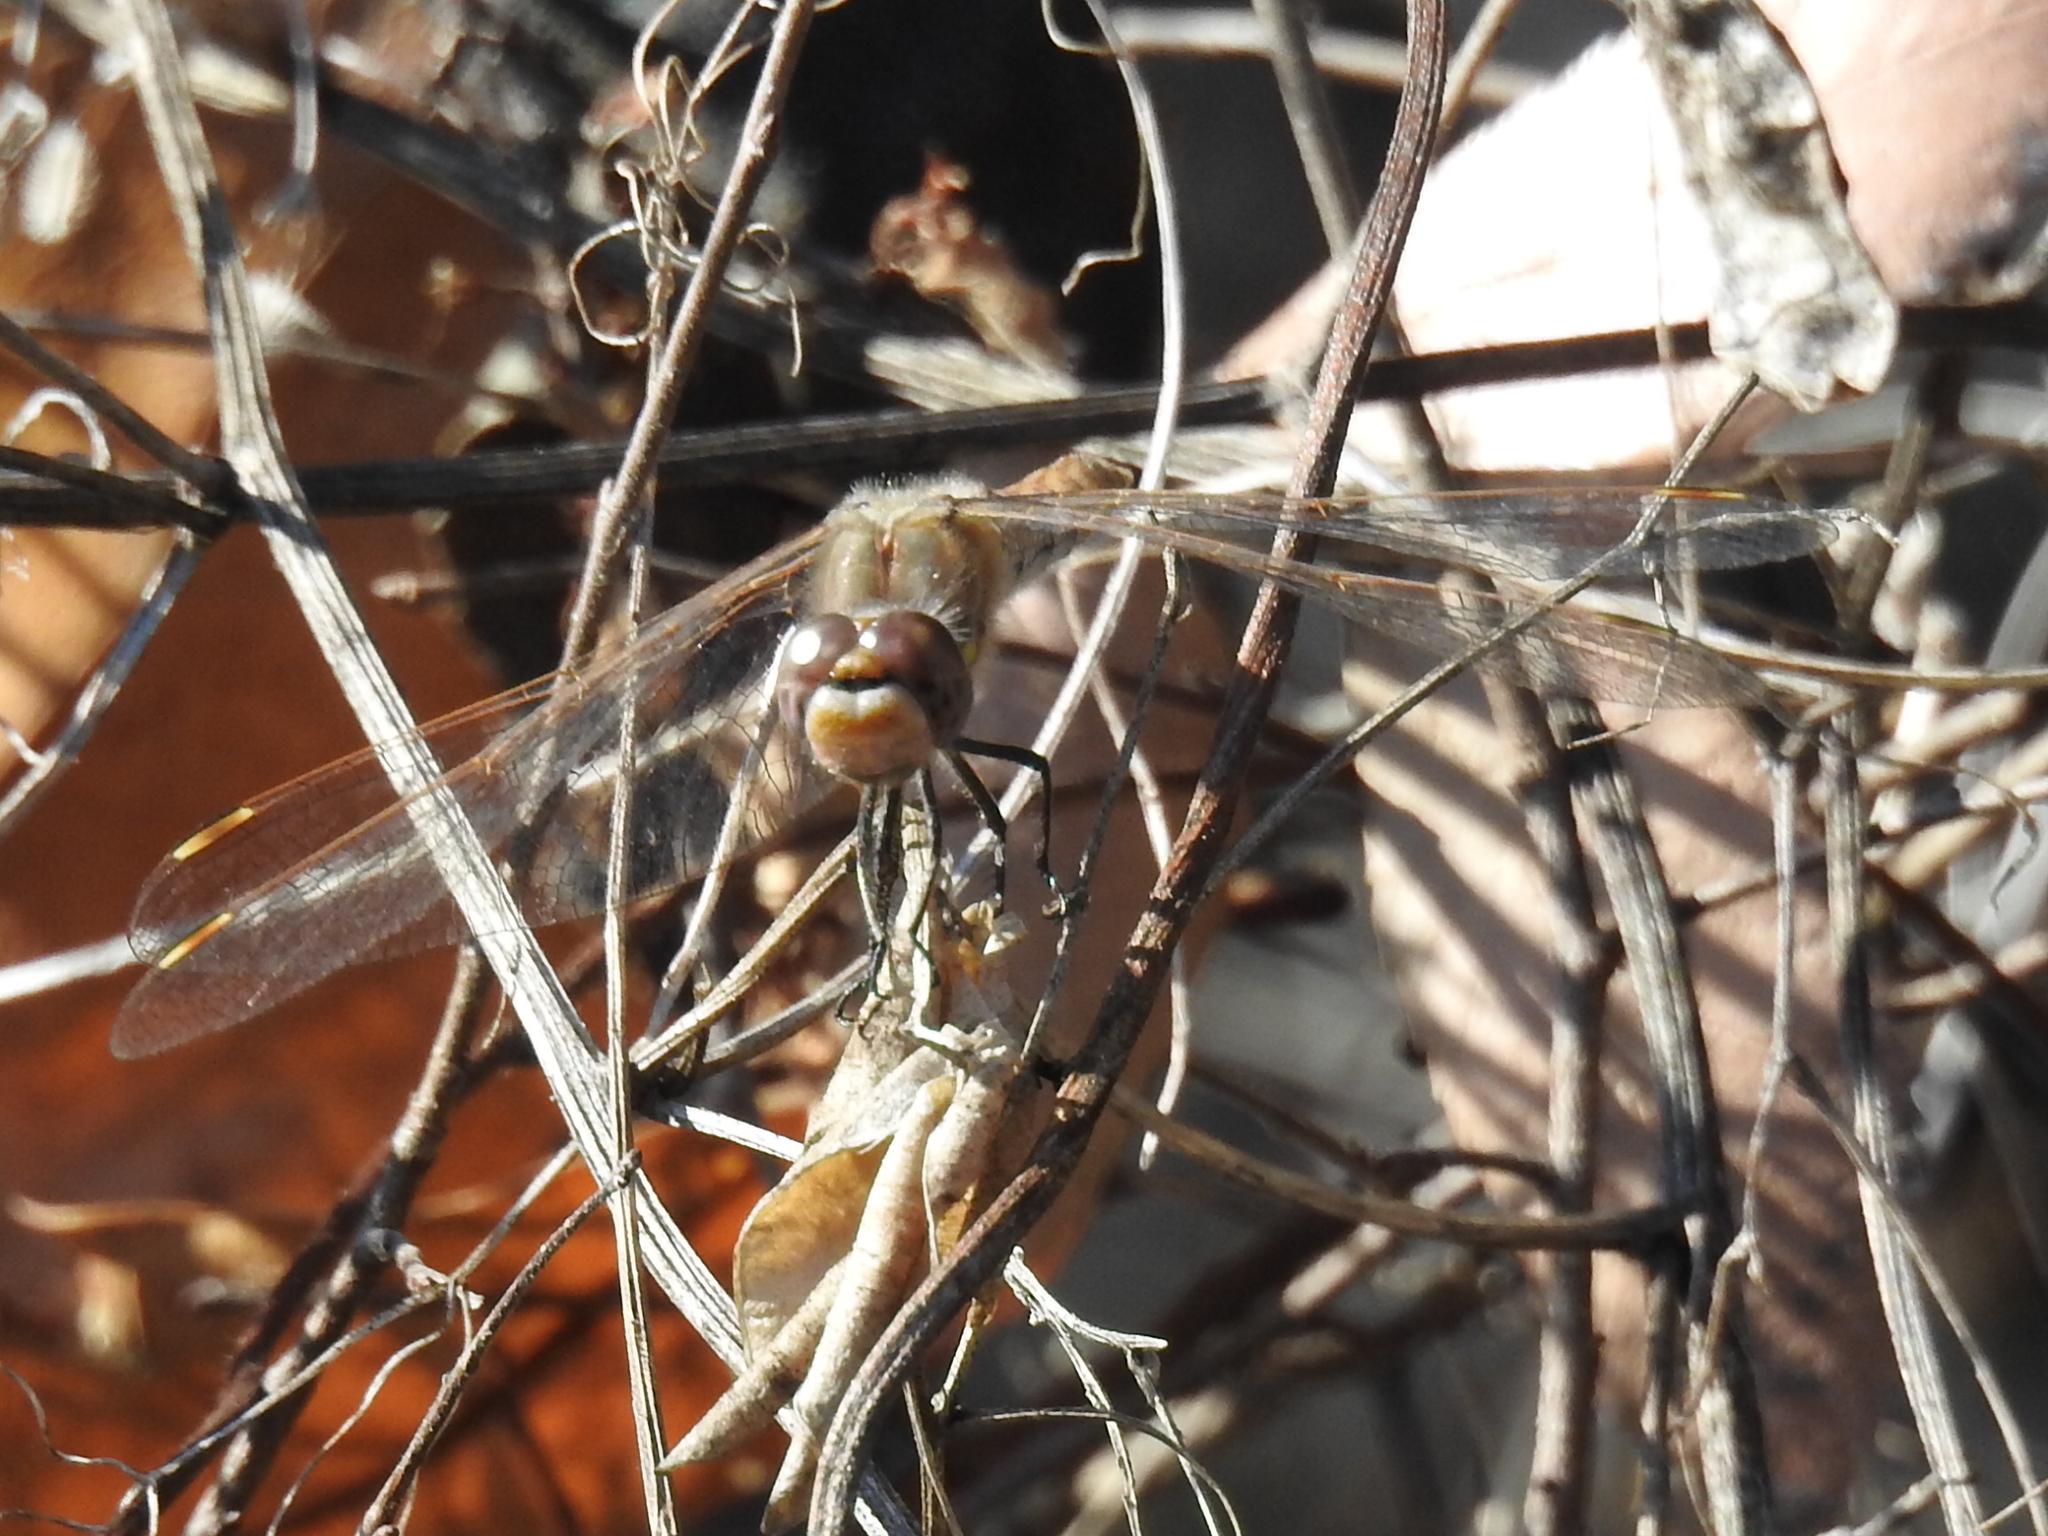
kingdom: Animalia
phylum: Arthropoda
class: Insecta
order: Odonata
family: Libellulidae
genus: Sympetrum
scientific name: Sympetrum corruptum
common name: Variegated meadowhawk
